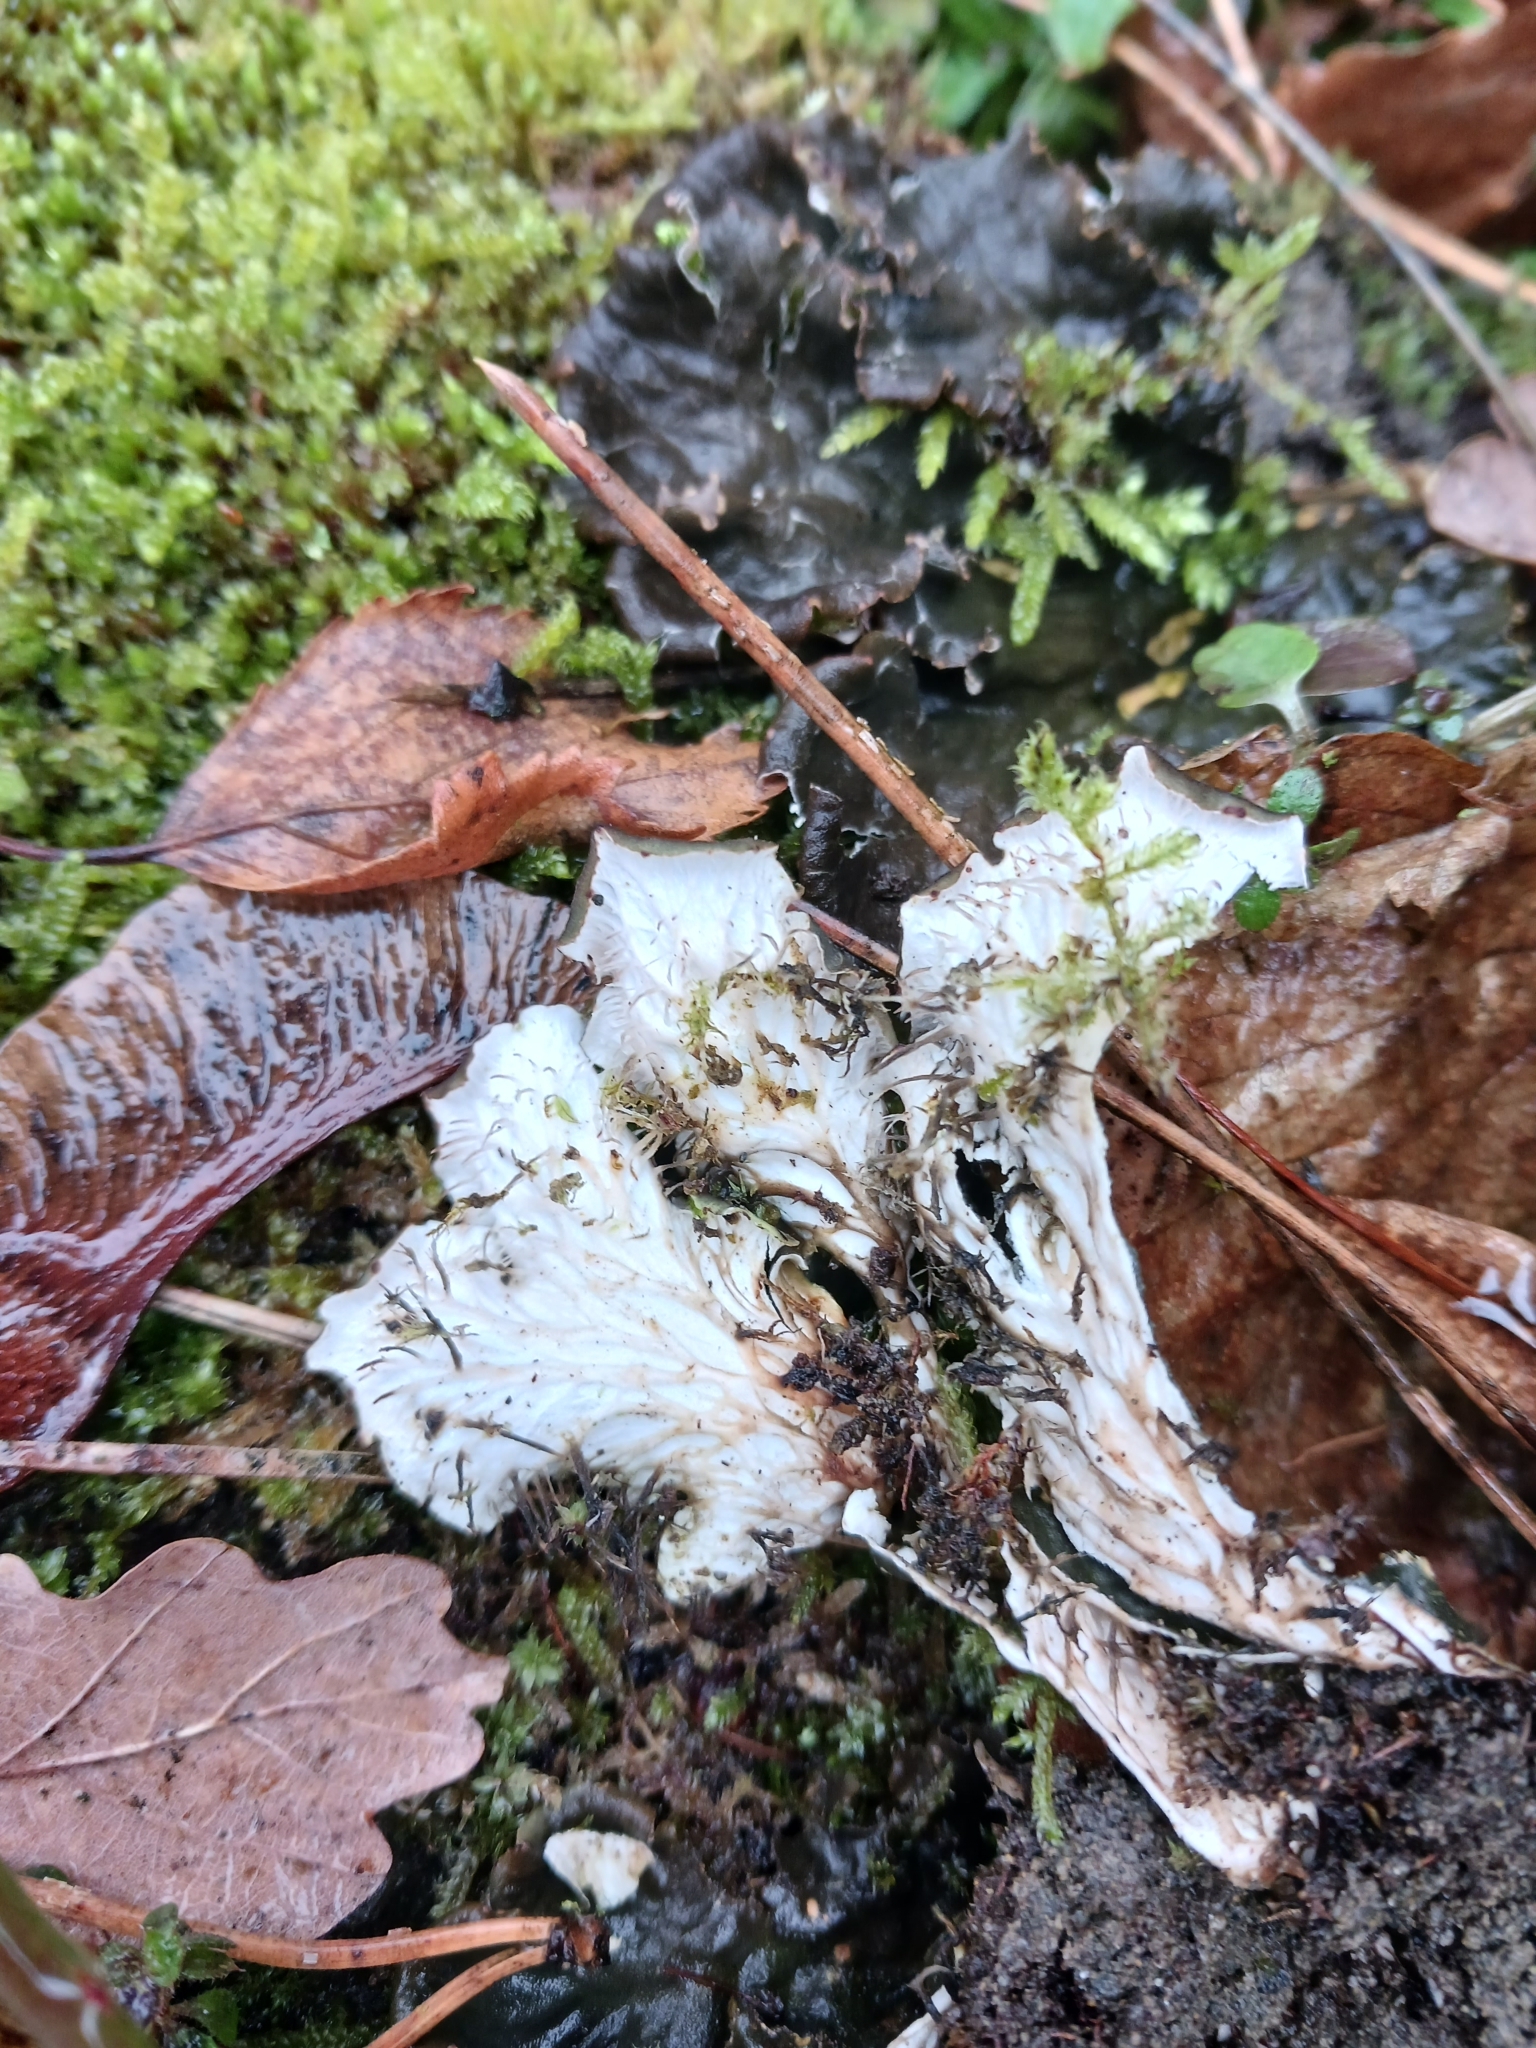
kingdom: Fungi
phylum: Ascomycota
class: Lecanoromycetes
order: Peltigerales
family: Peltigeraceae
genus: Peltigera
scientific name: Peltigera praetextata
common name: Scaly dog-lichen
